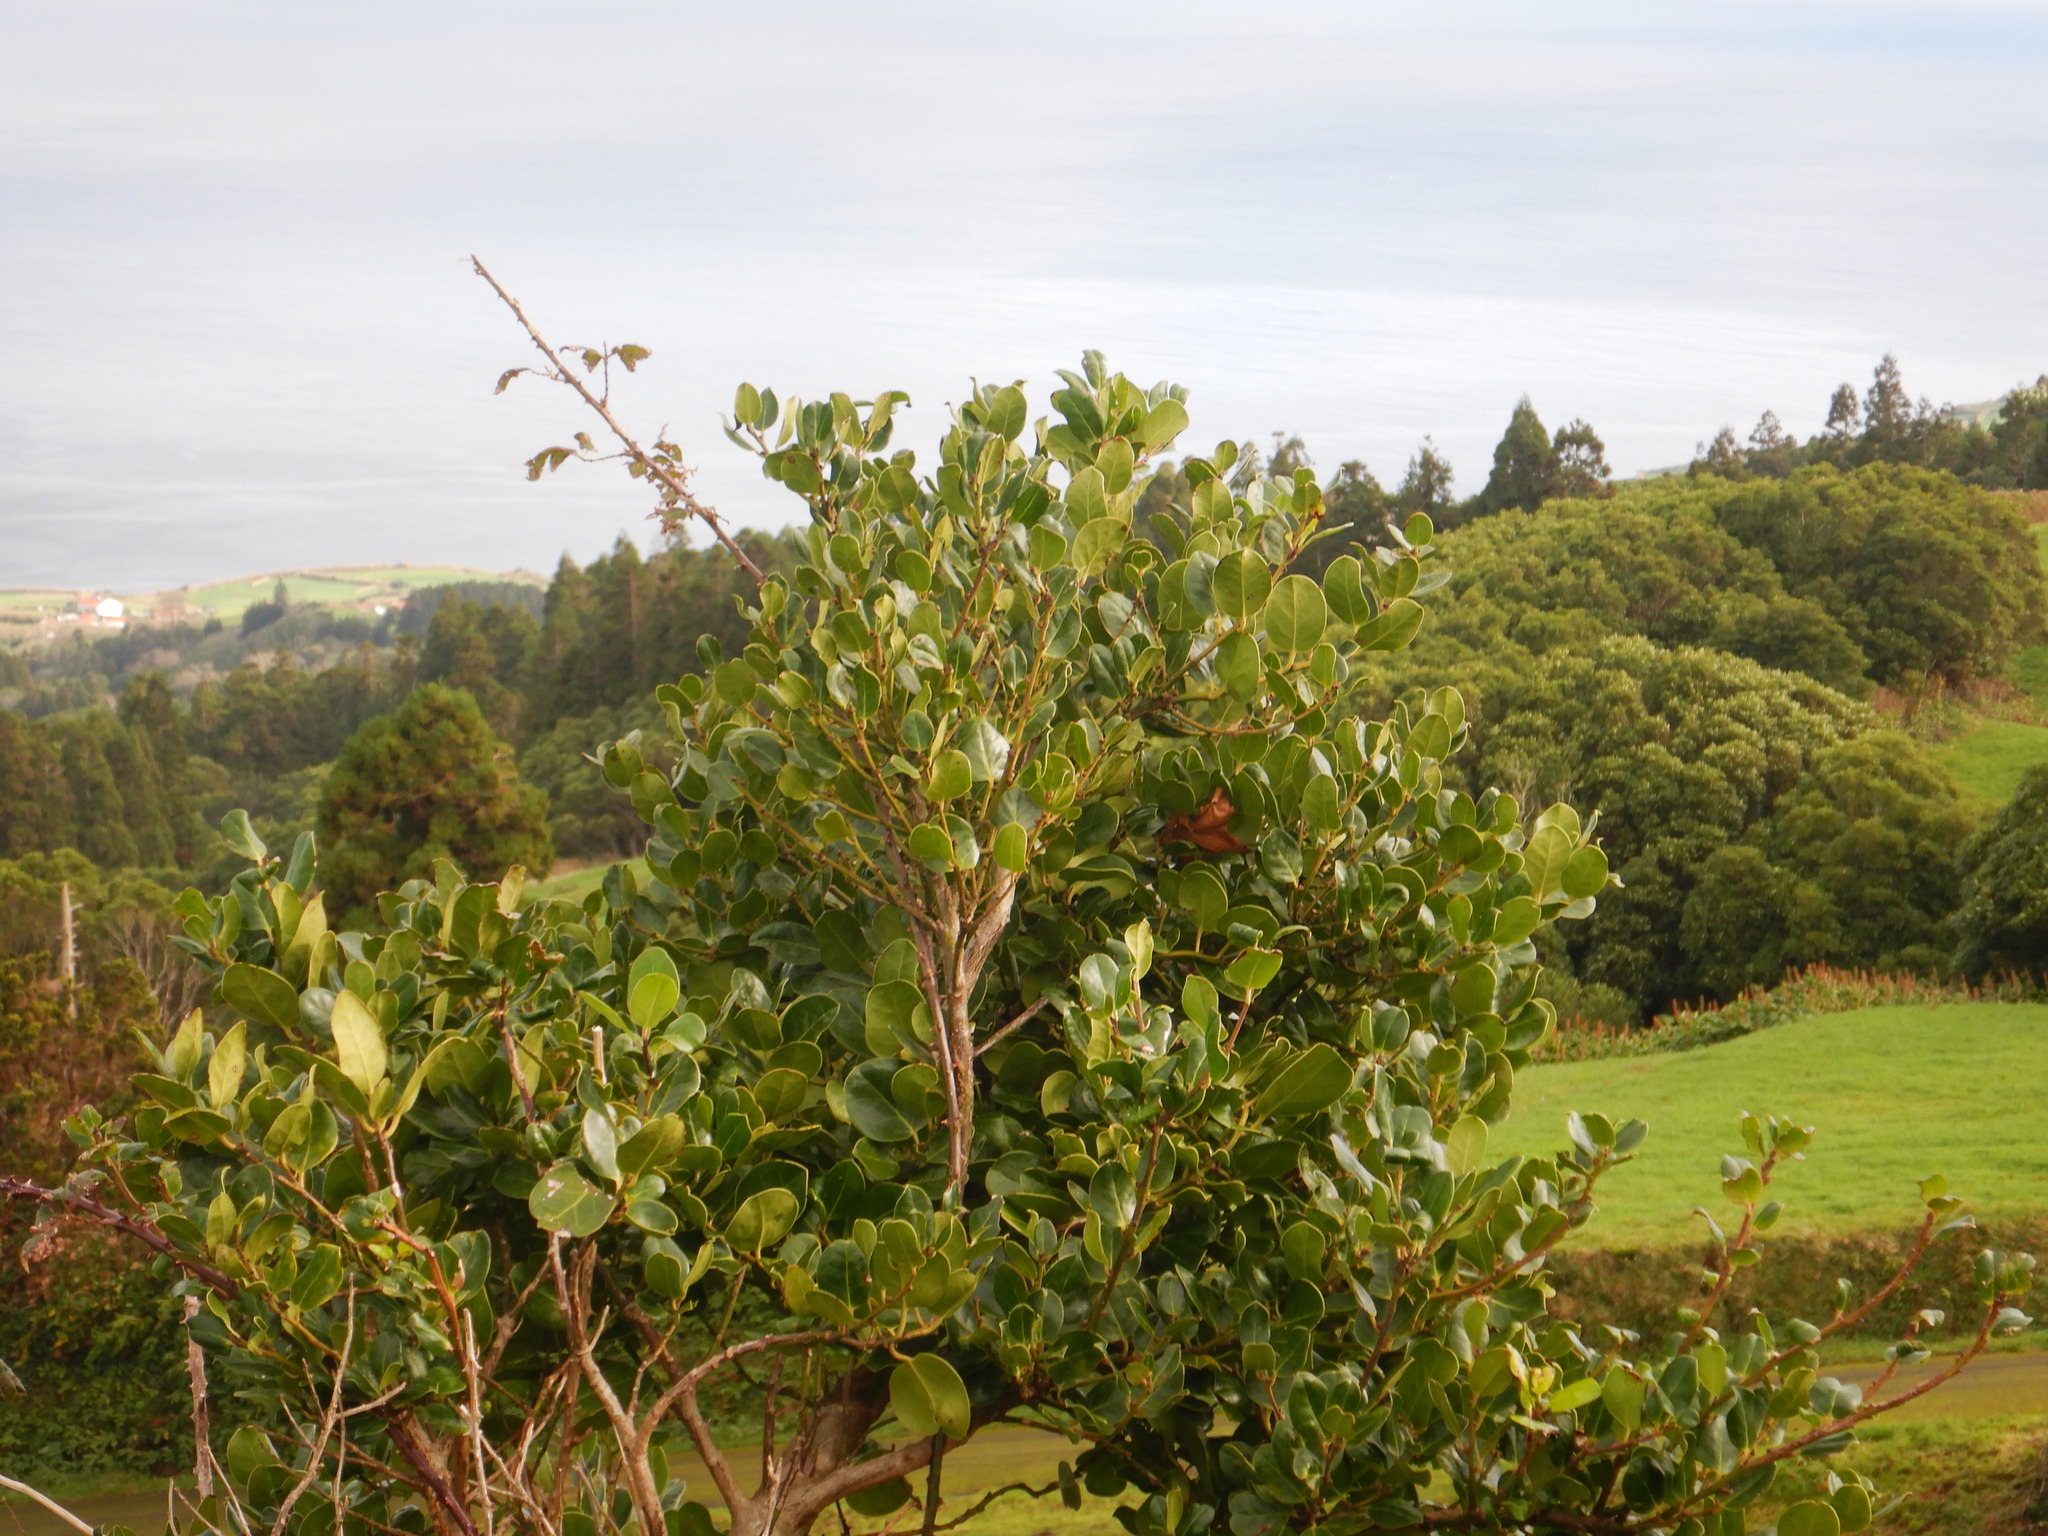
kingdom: Plantae
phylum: Tracheophyta
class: Magnoliopsida
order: Aquifoliales
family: Aquifoliaceae
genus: Ilex
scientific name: Ilex perado
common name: Madeira holly
